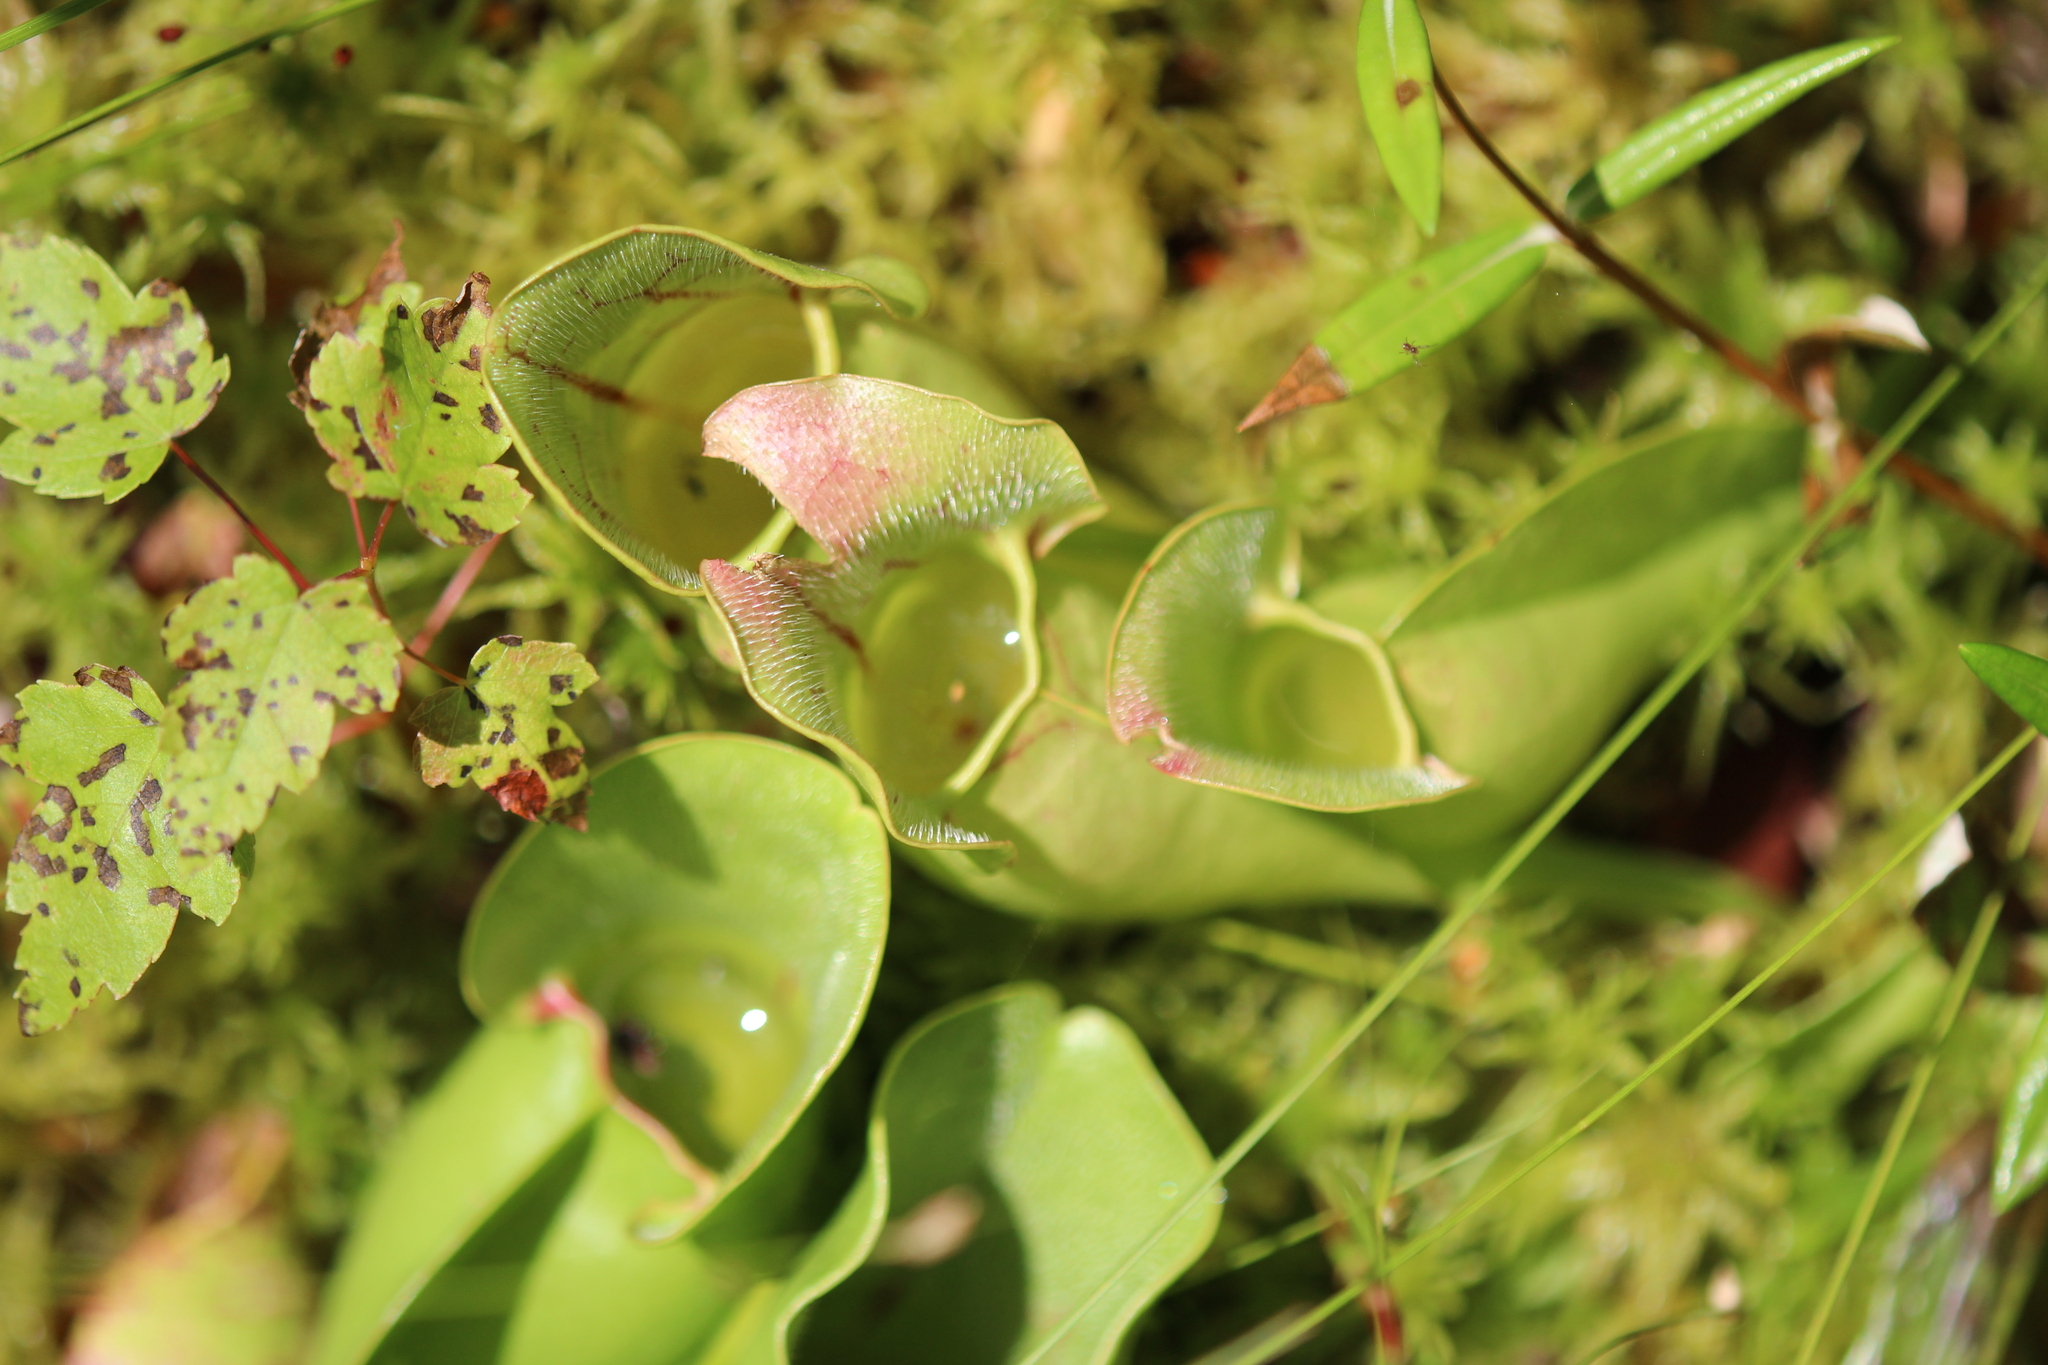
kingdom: Plantae
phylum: Tracheophyta
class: Magnoliopsida
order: Ericales
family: Sarraceniaceae
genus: Sarracenia
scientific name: Sarracenia purpurea
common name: Pitcherplant
